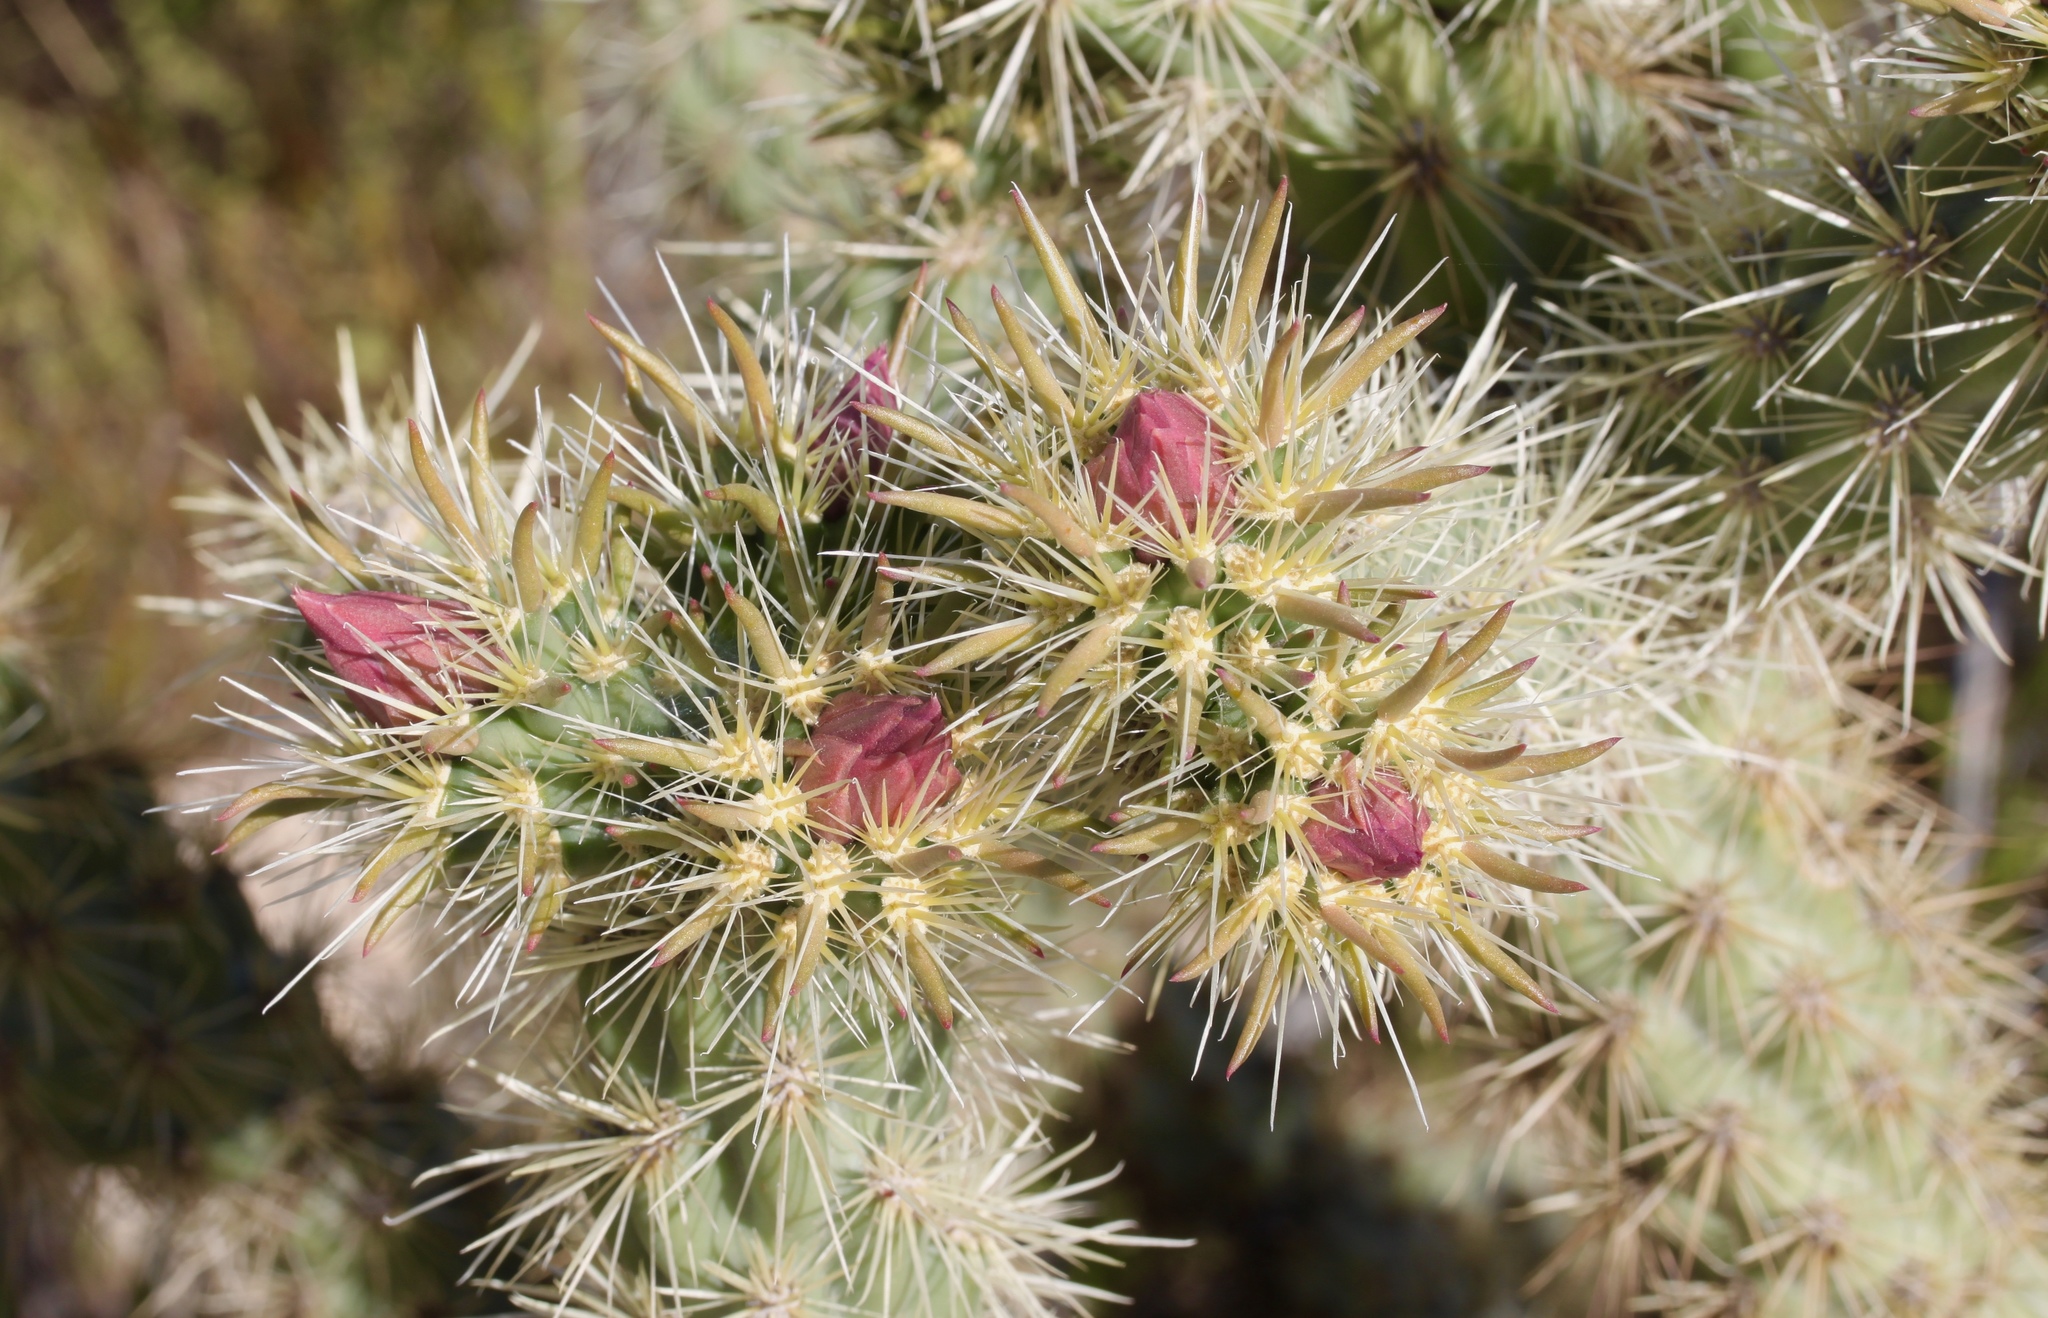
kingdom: Plantae
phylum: Tracheophyta
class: Magnoliopsida
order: Caryophyllales
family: Cactaceae
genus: Cylindropuntia
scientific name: Cylindropuntia acanthocarpa
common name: Buckhorn cholla
